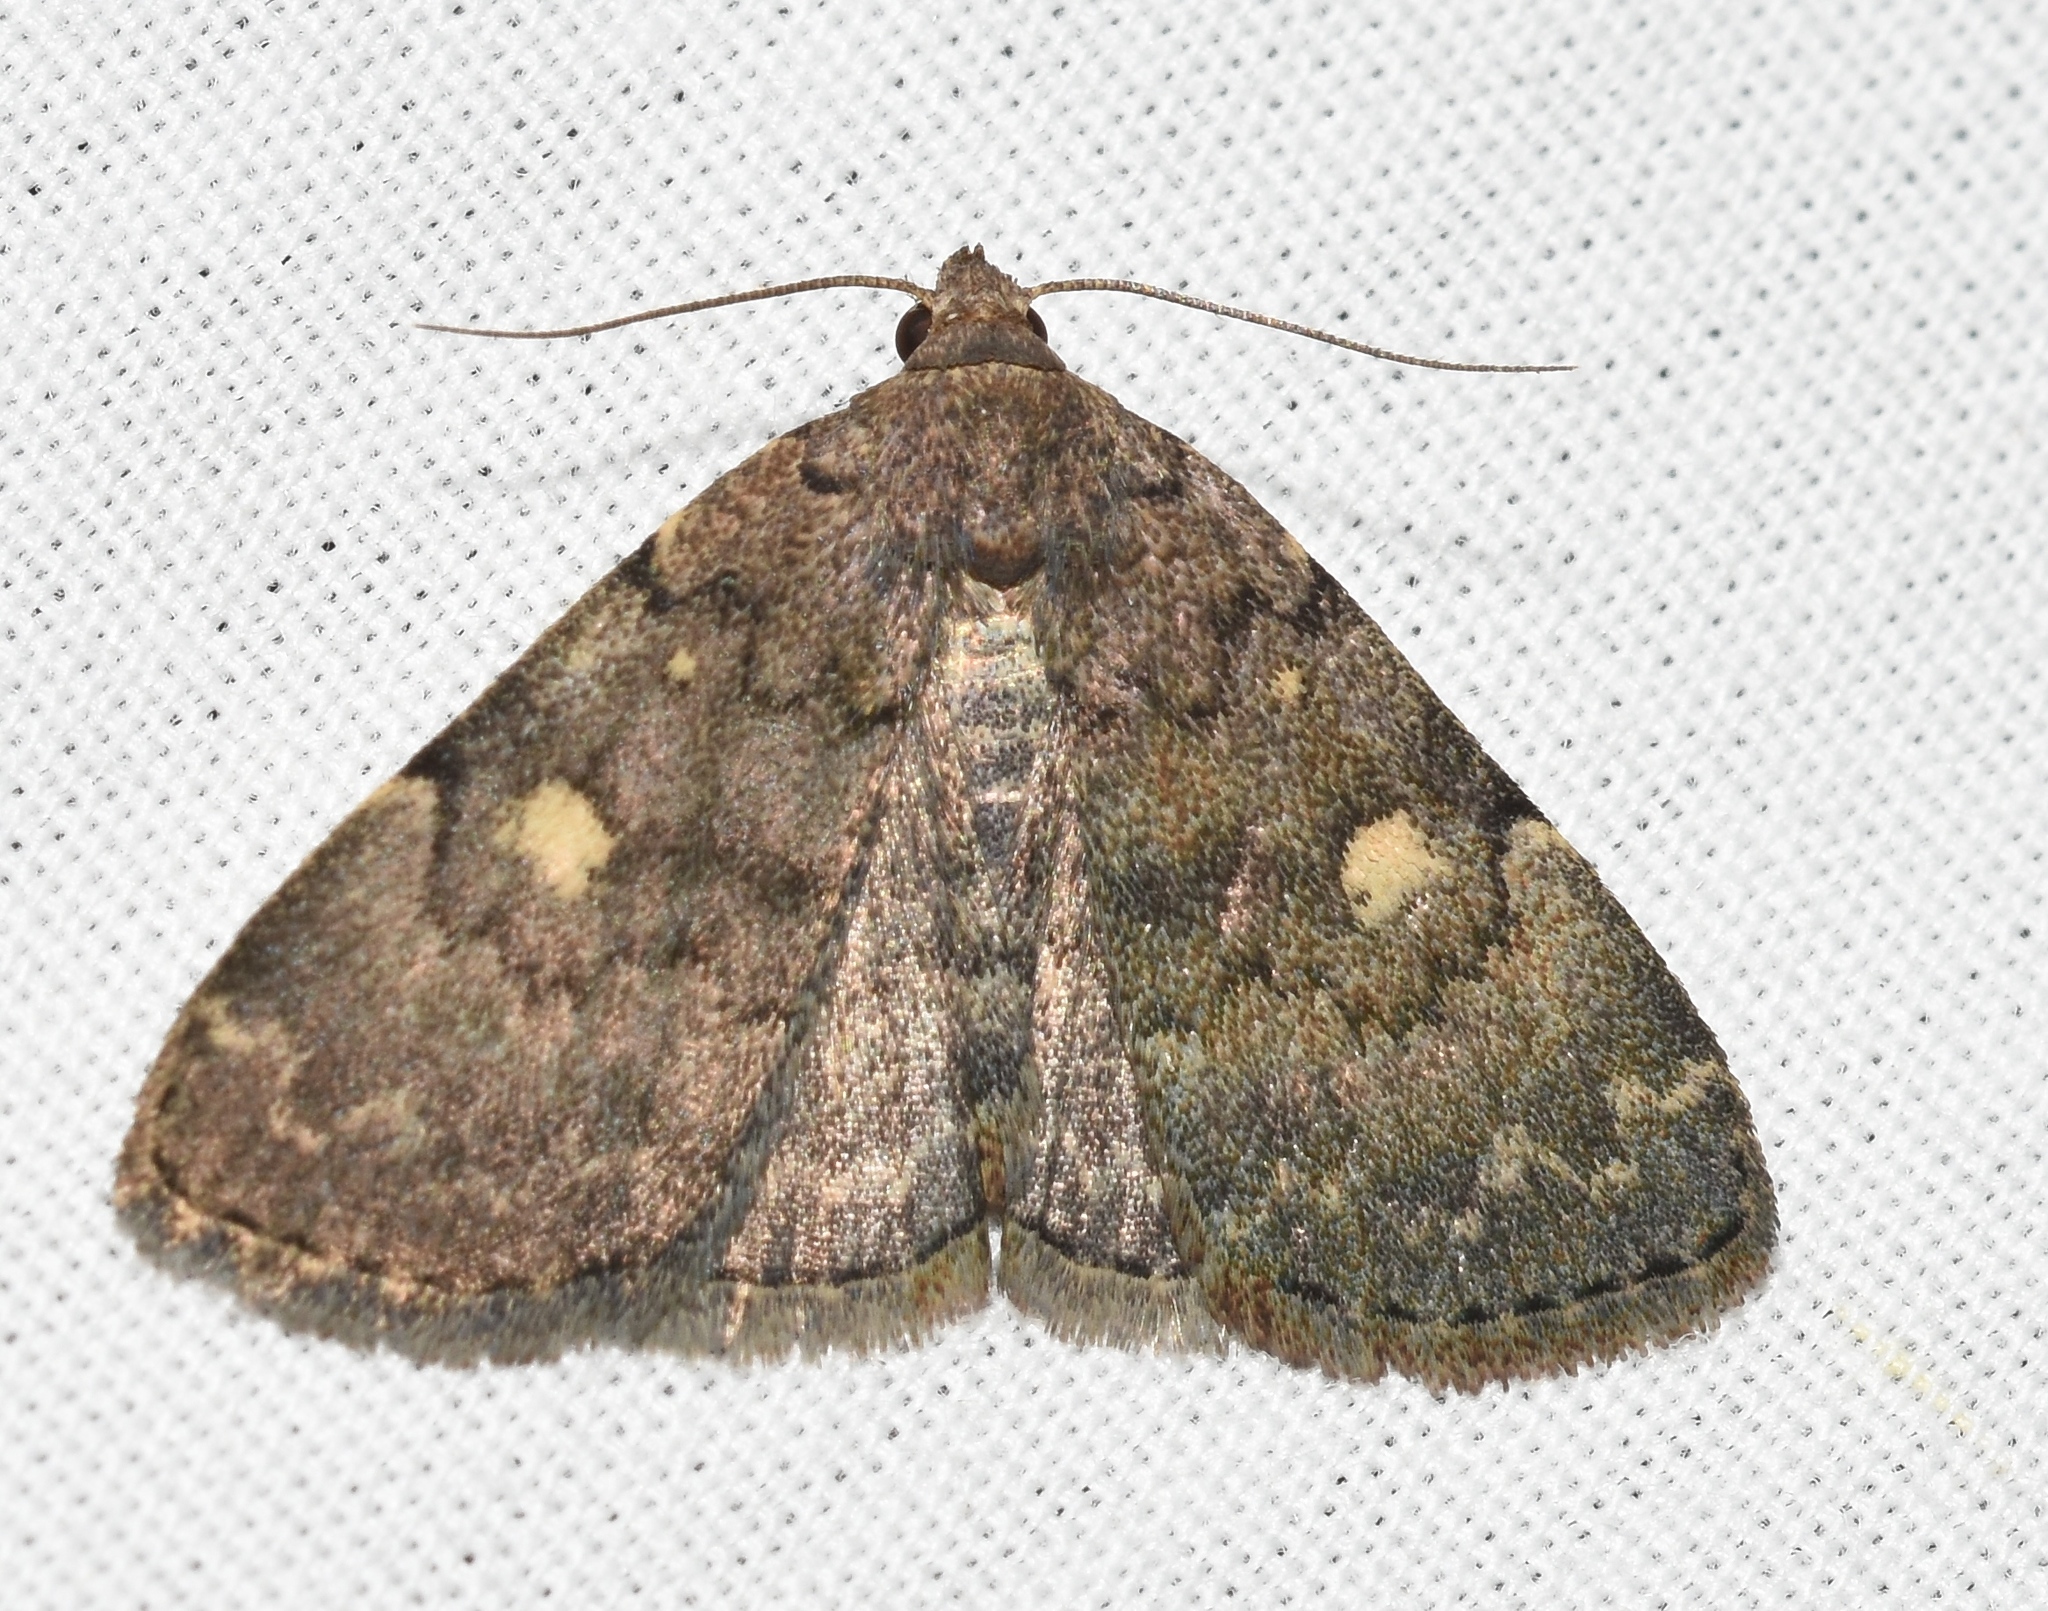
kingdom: Animalia
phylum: Arthropoda
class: Insecta
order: Lepidoptera
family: Erebidae
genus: Idia
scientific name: Idia aemula
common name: Common idia moth
